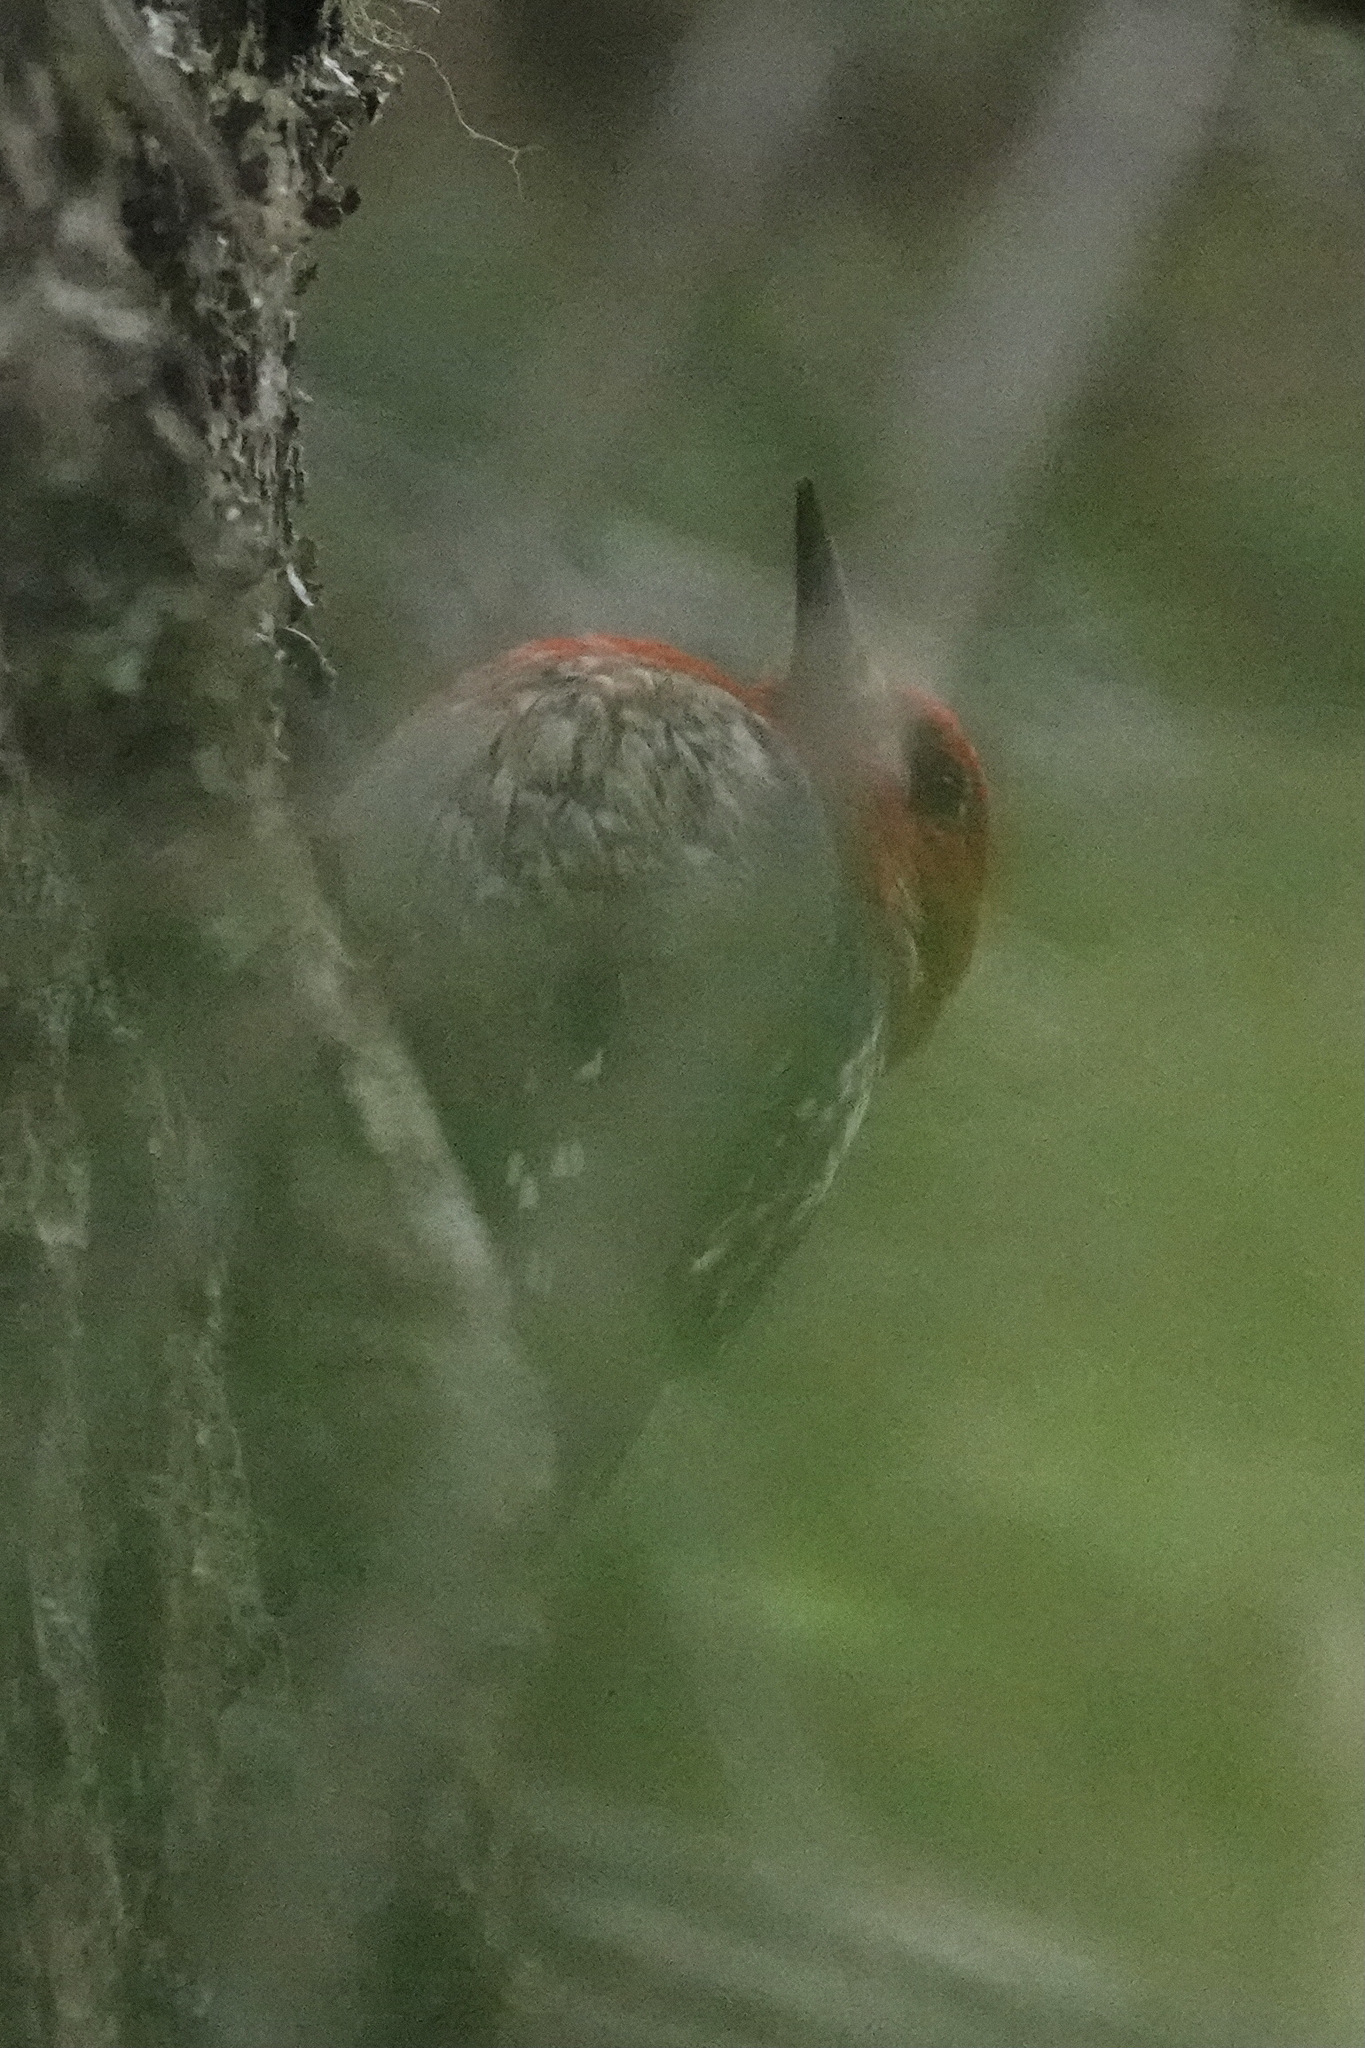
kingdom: Animalia
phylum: Chordata
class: Aves
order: Piciformes
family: Picidae
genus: Sphyrapicus
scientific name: Sphyrapicus ruber
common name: Red-breasted sapsucker
